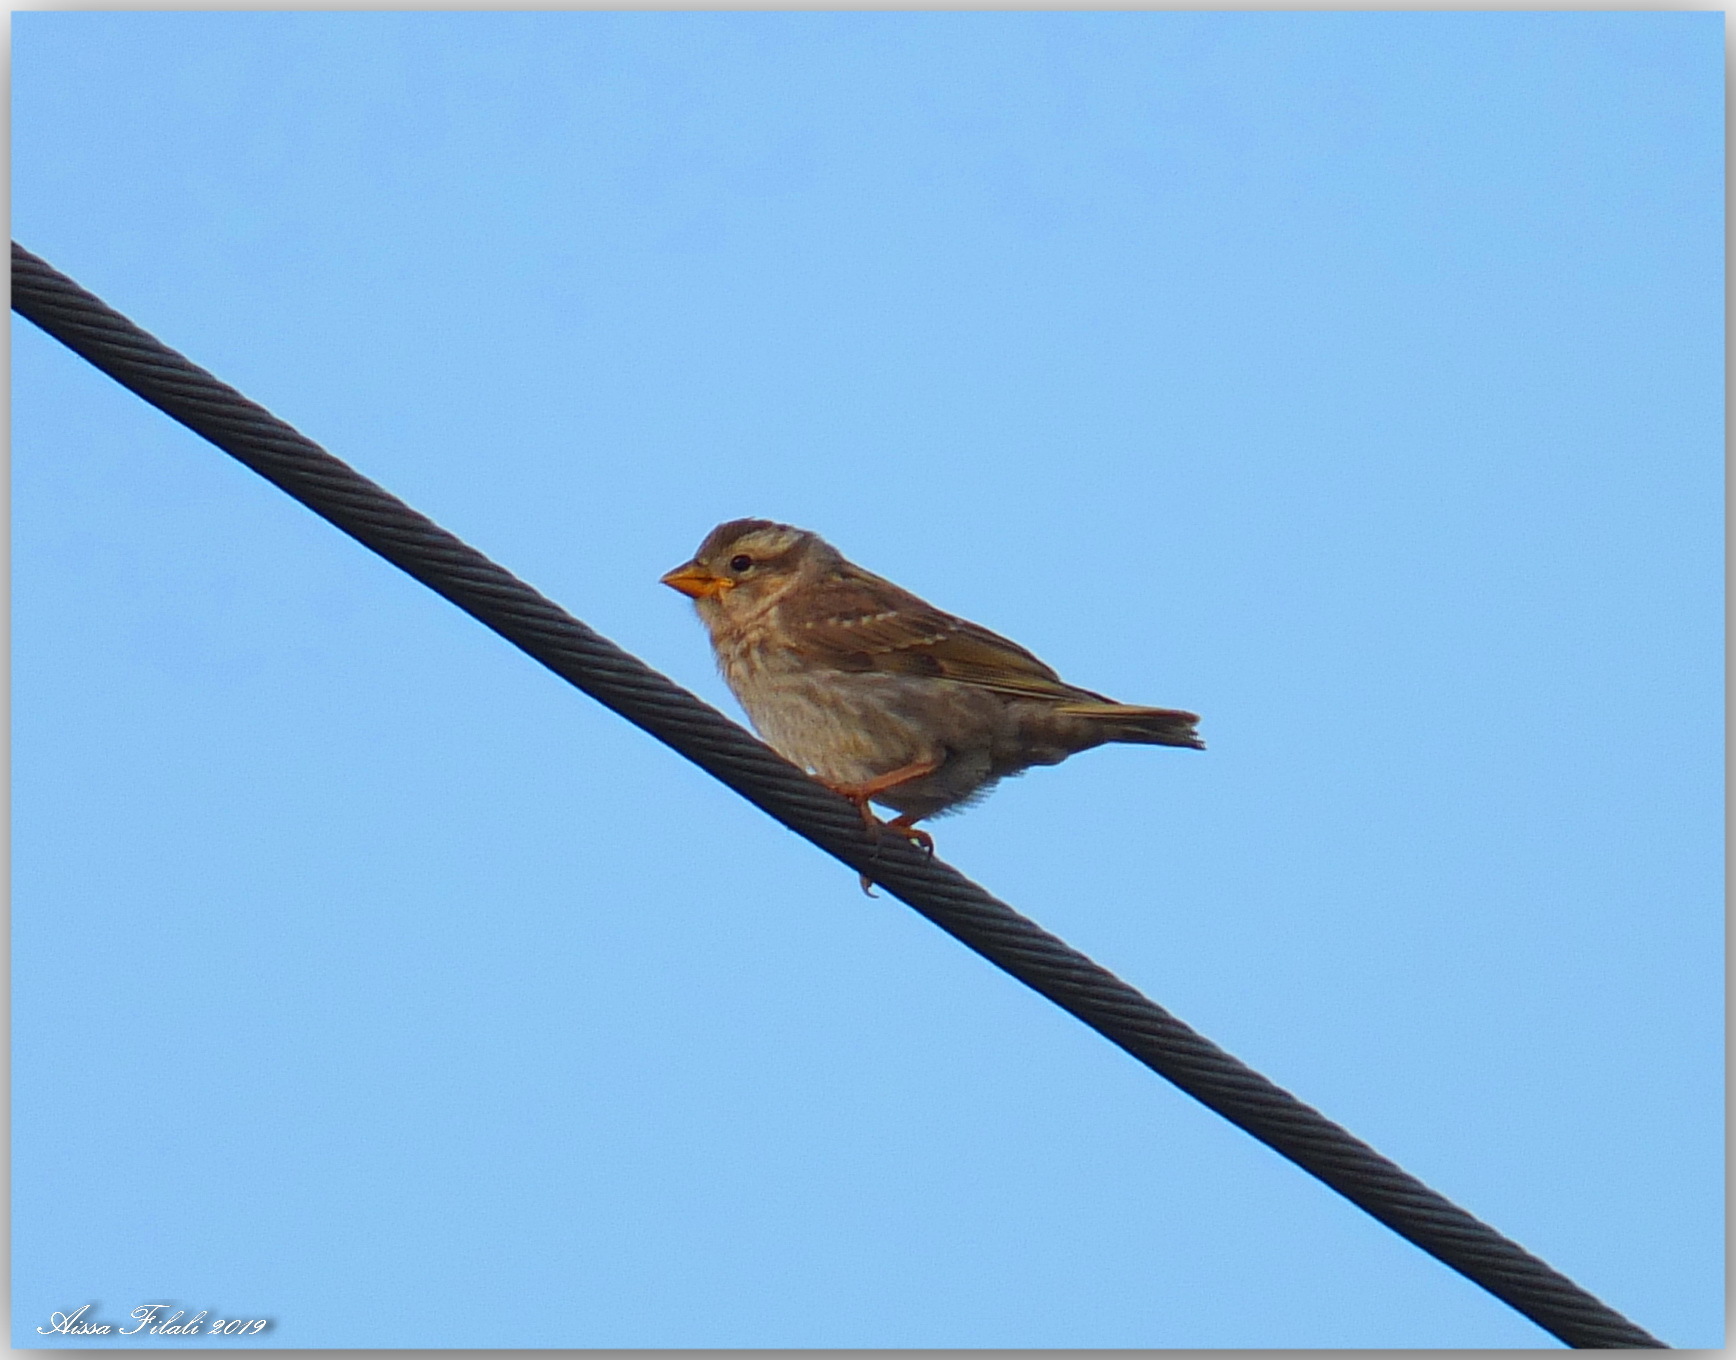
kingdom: Animalia
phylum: Chordata
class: Aves
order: Passeriformes
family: Passeridae
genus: Petronia
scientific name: Petronia petronia
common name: Rock sparrow
